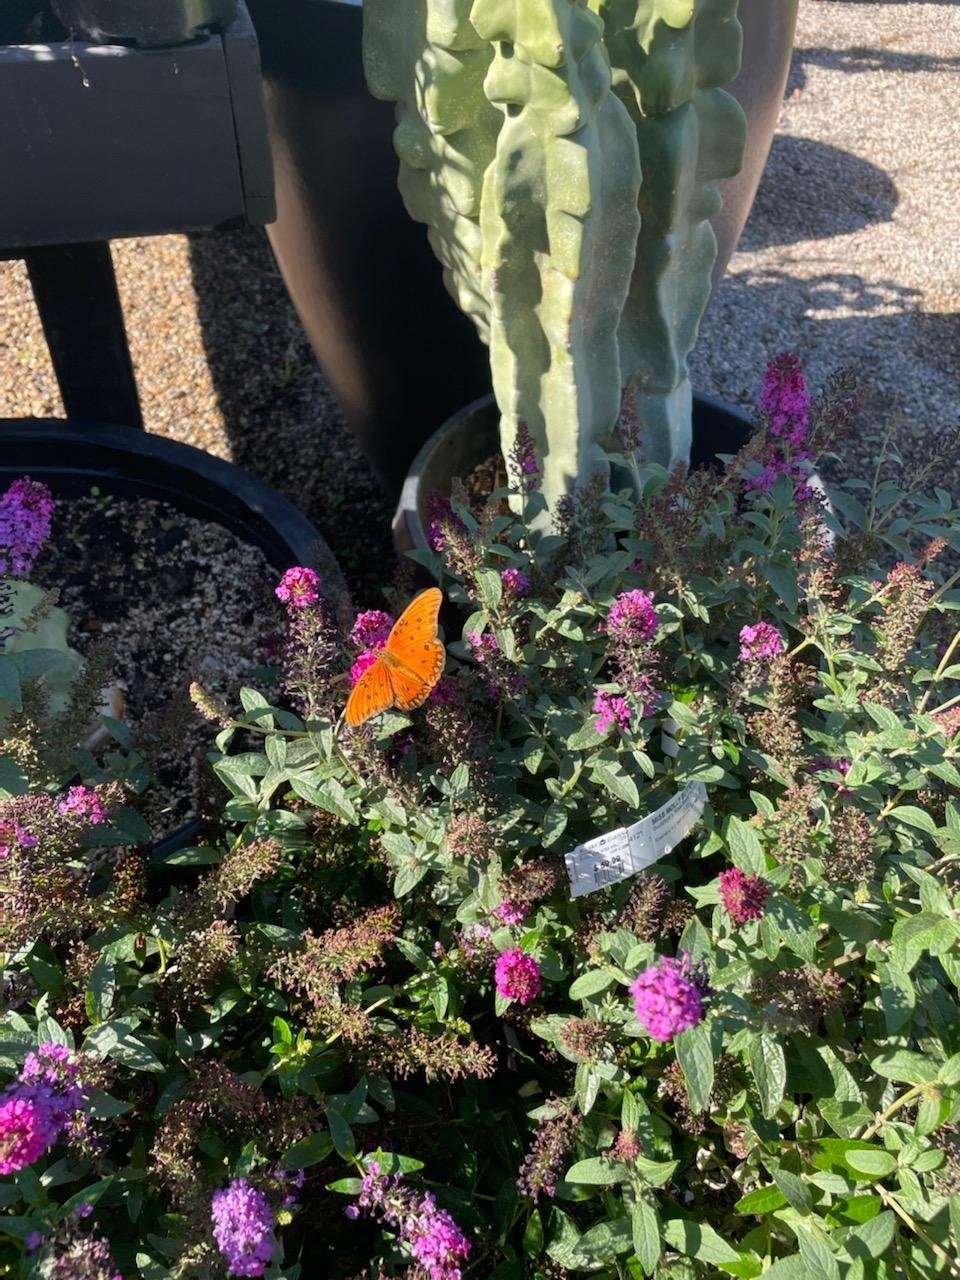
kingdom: Animalia
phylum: Arthropoda
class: Insecta
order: Lepidoptera
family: Nymphalidae
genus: Dione
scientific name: Dione vanillae
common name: Gulf fritillary
